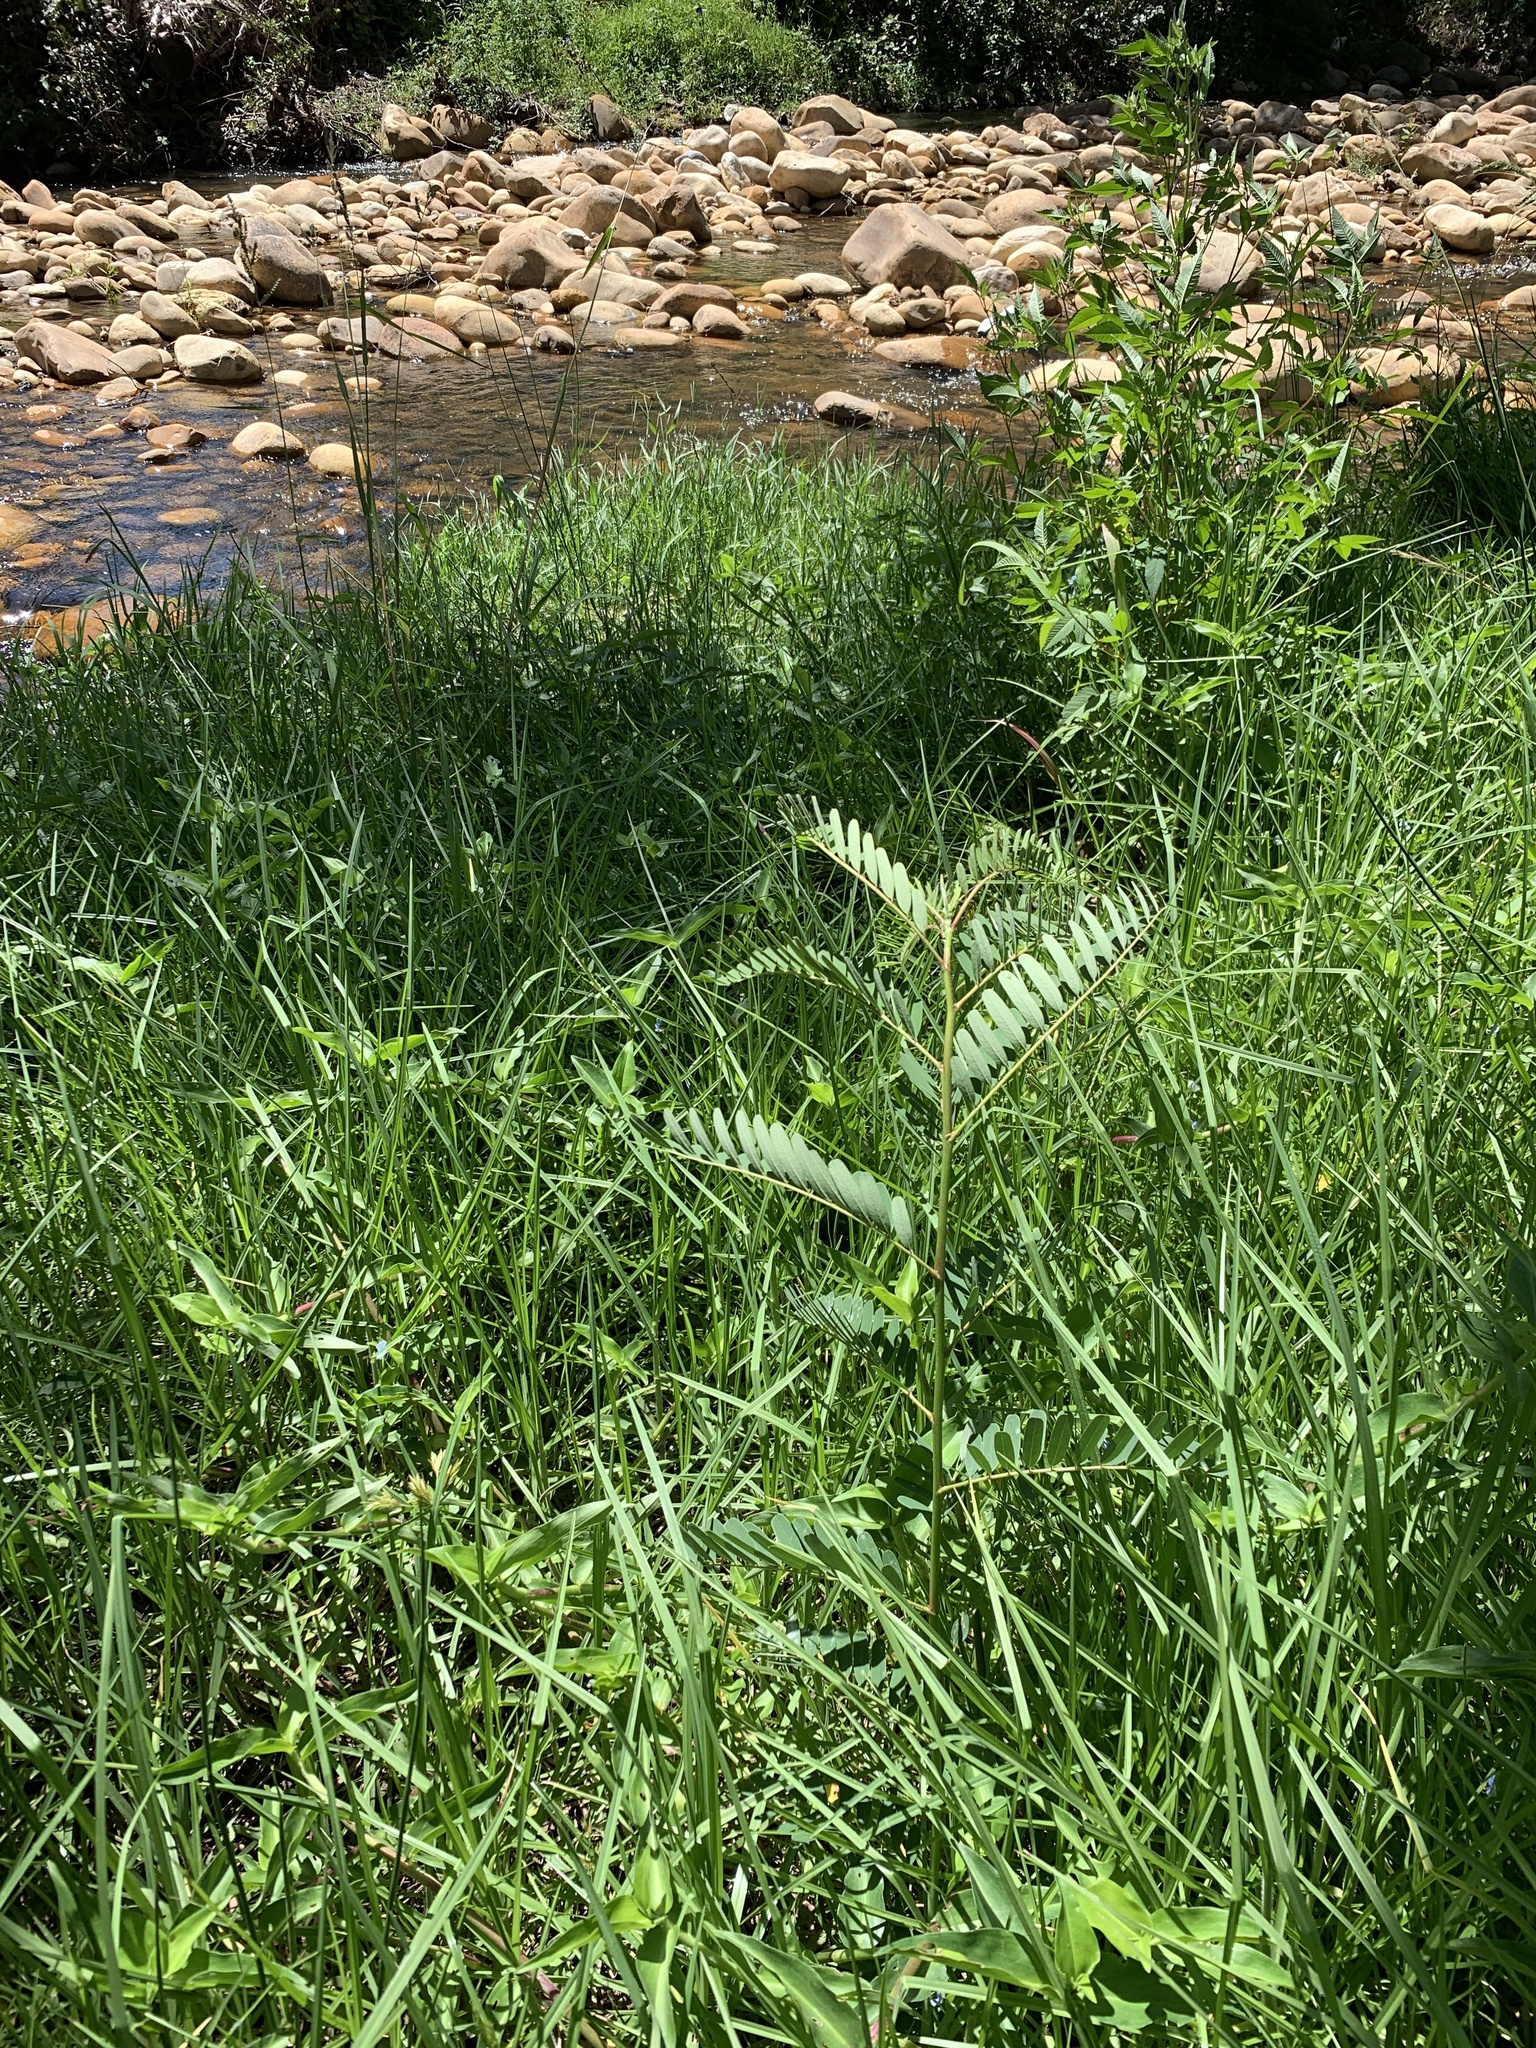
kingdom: Plantae
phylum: Tracheophyta
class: Magnoliopsida
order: Fabales
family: Fabaceae
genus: Sesbania
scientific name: Sesbania punicea
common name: Rattlebox
